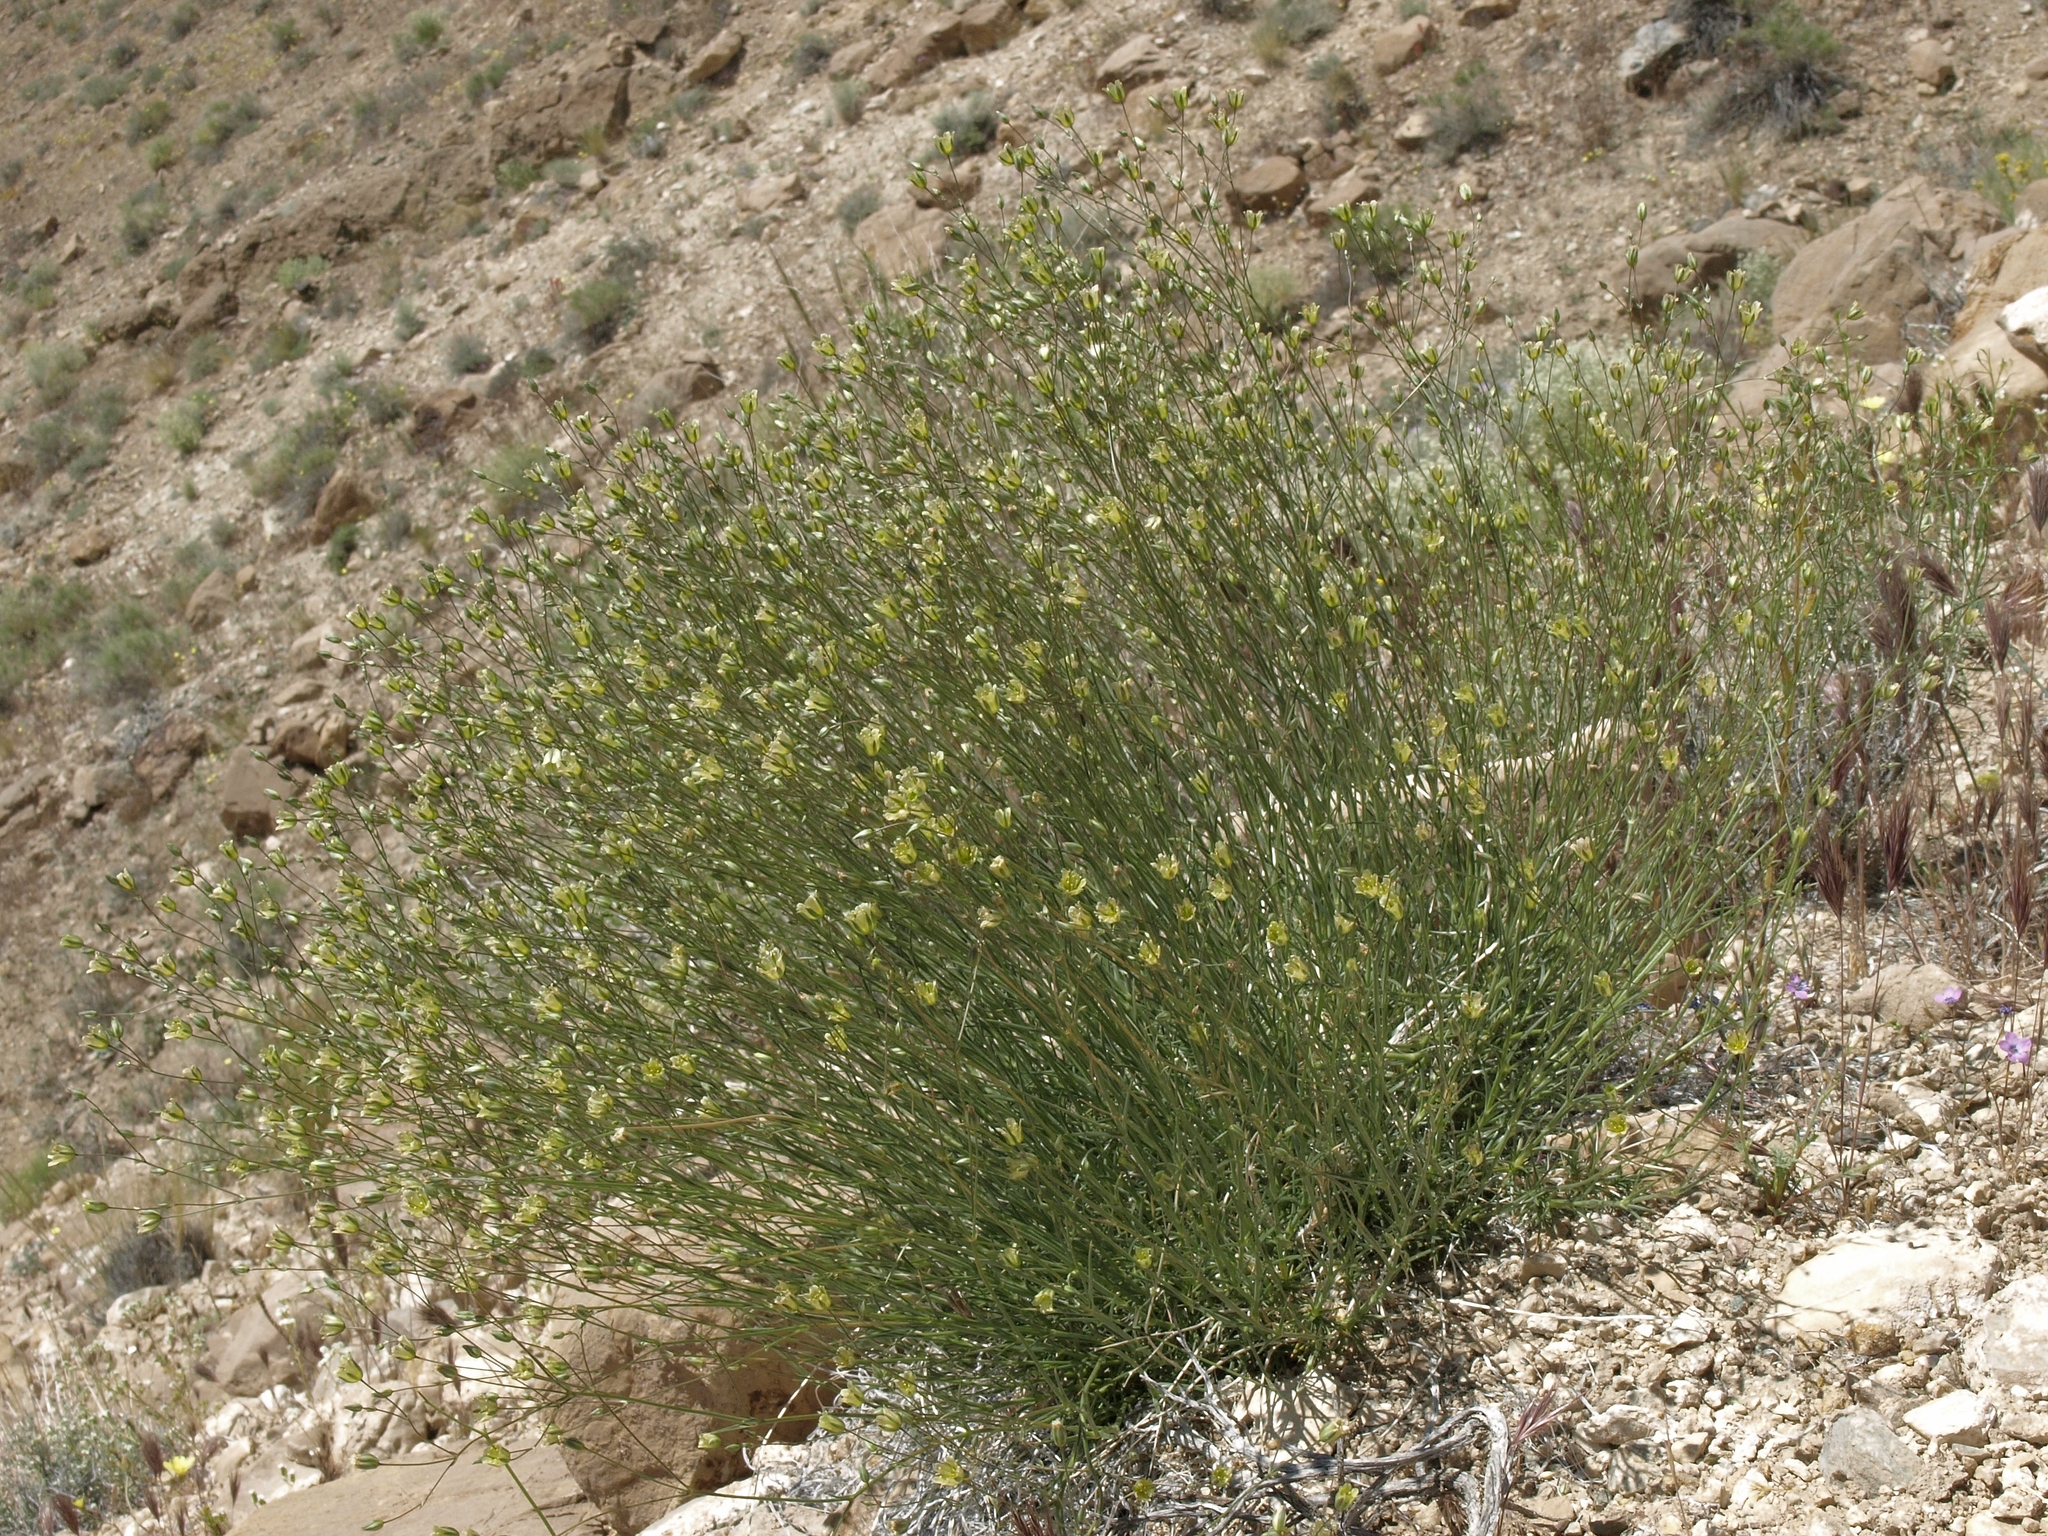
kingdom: Plantae
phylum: Tracheophyta
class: Magnoliopsida
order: Caryophyllales
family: Caryophyllaceae
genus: Eremogone
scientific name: Eremogone macradenia
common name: Mohave sandwort
